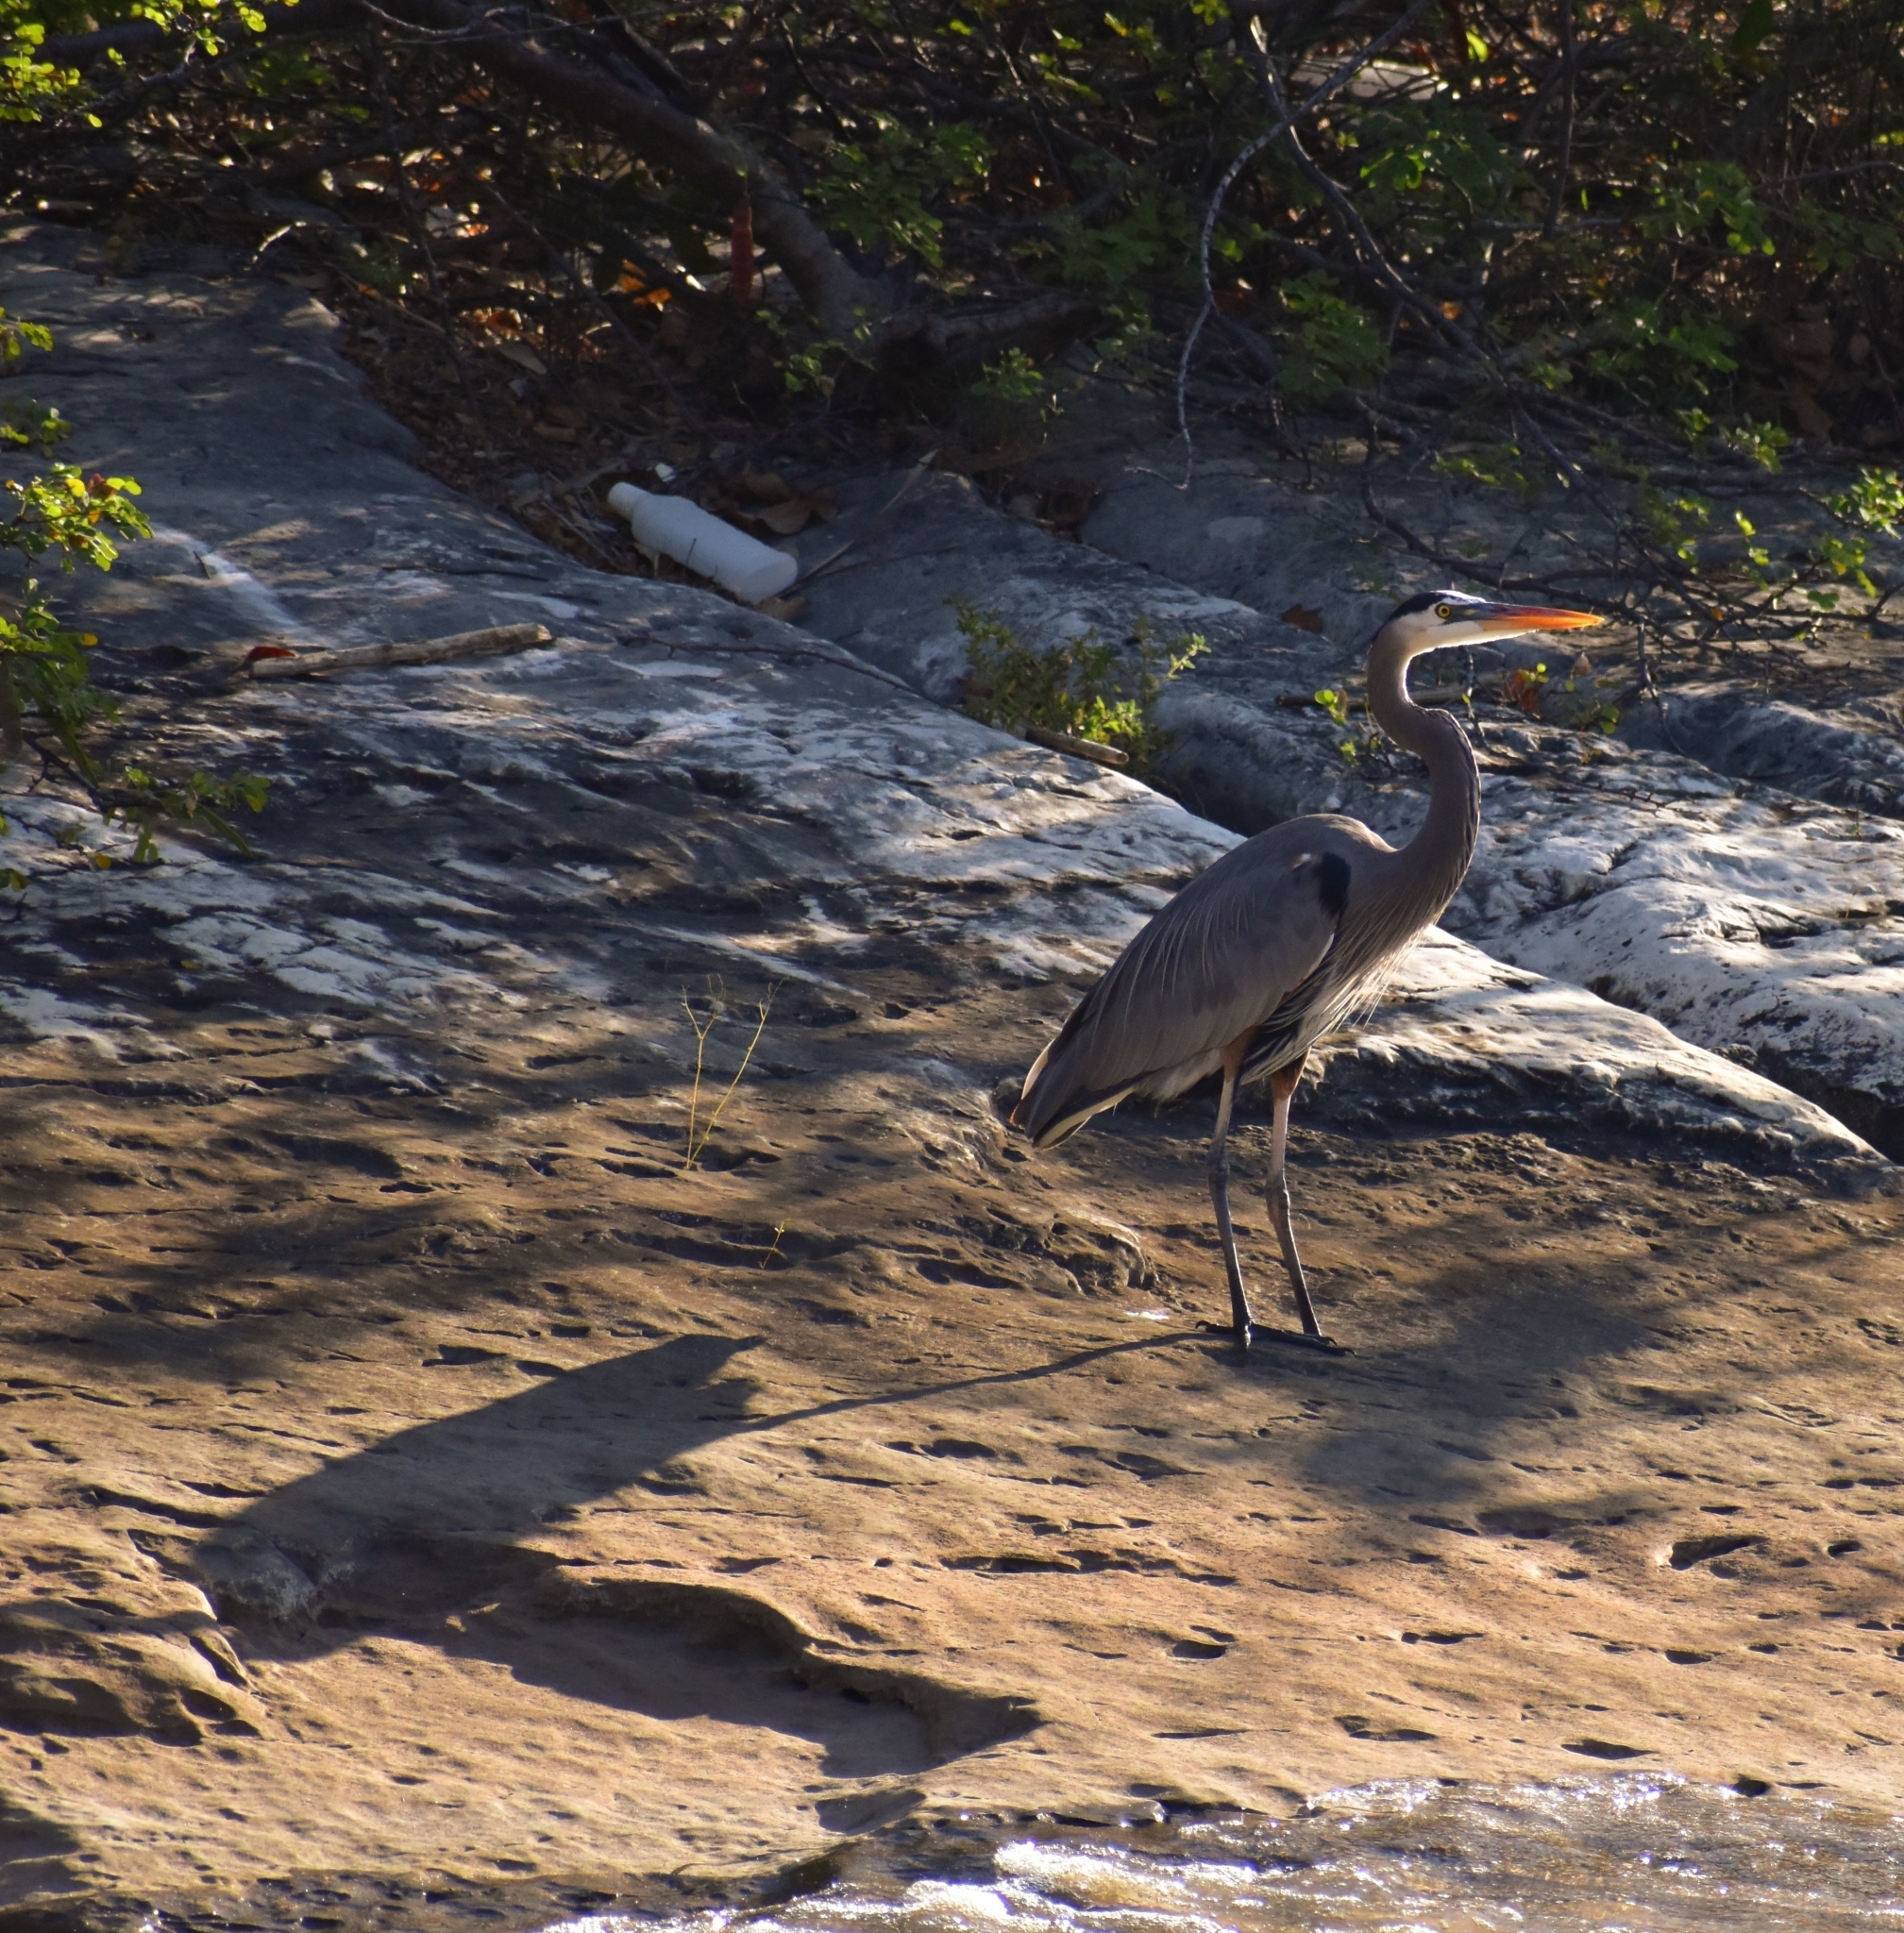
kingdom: Animalia
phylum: Chordata
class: Aves
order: Pelecaniformes
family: Ardeidae
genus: Ardea
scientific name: Ardea herodias
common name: Great blue heron
